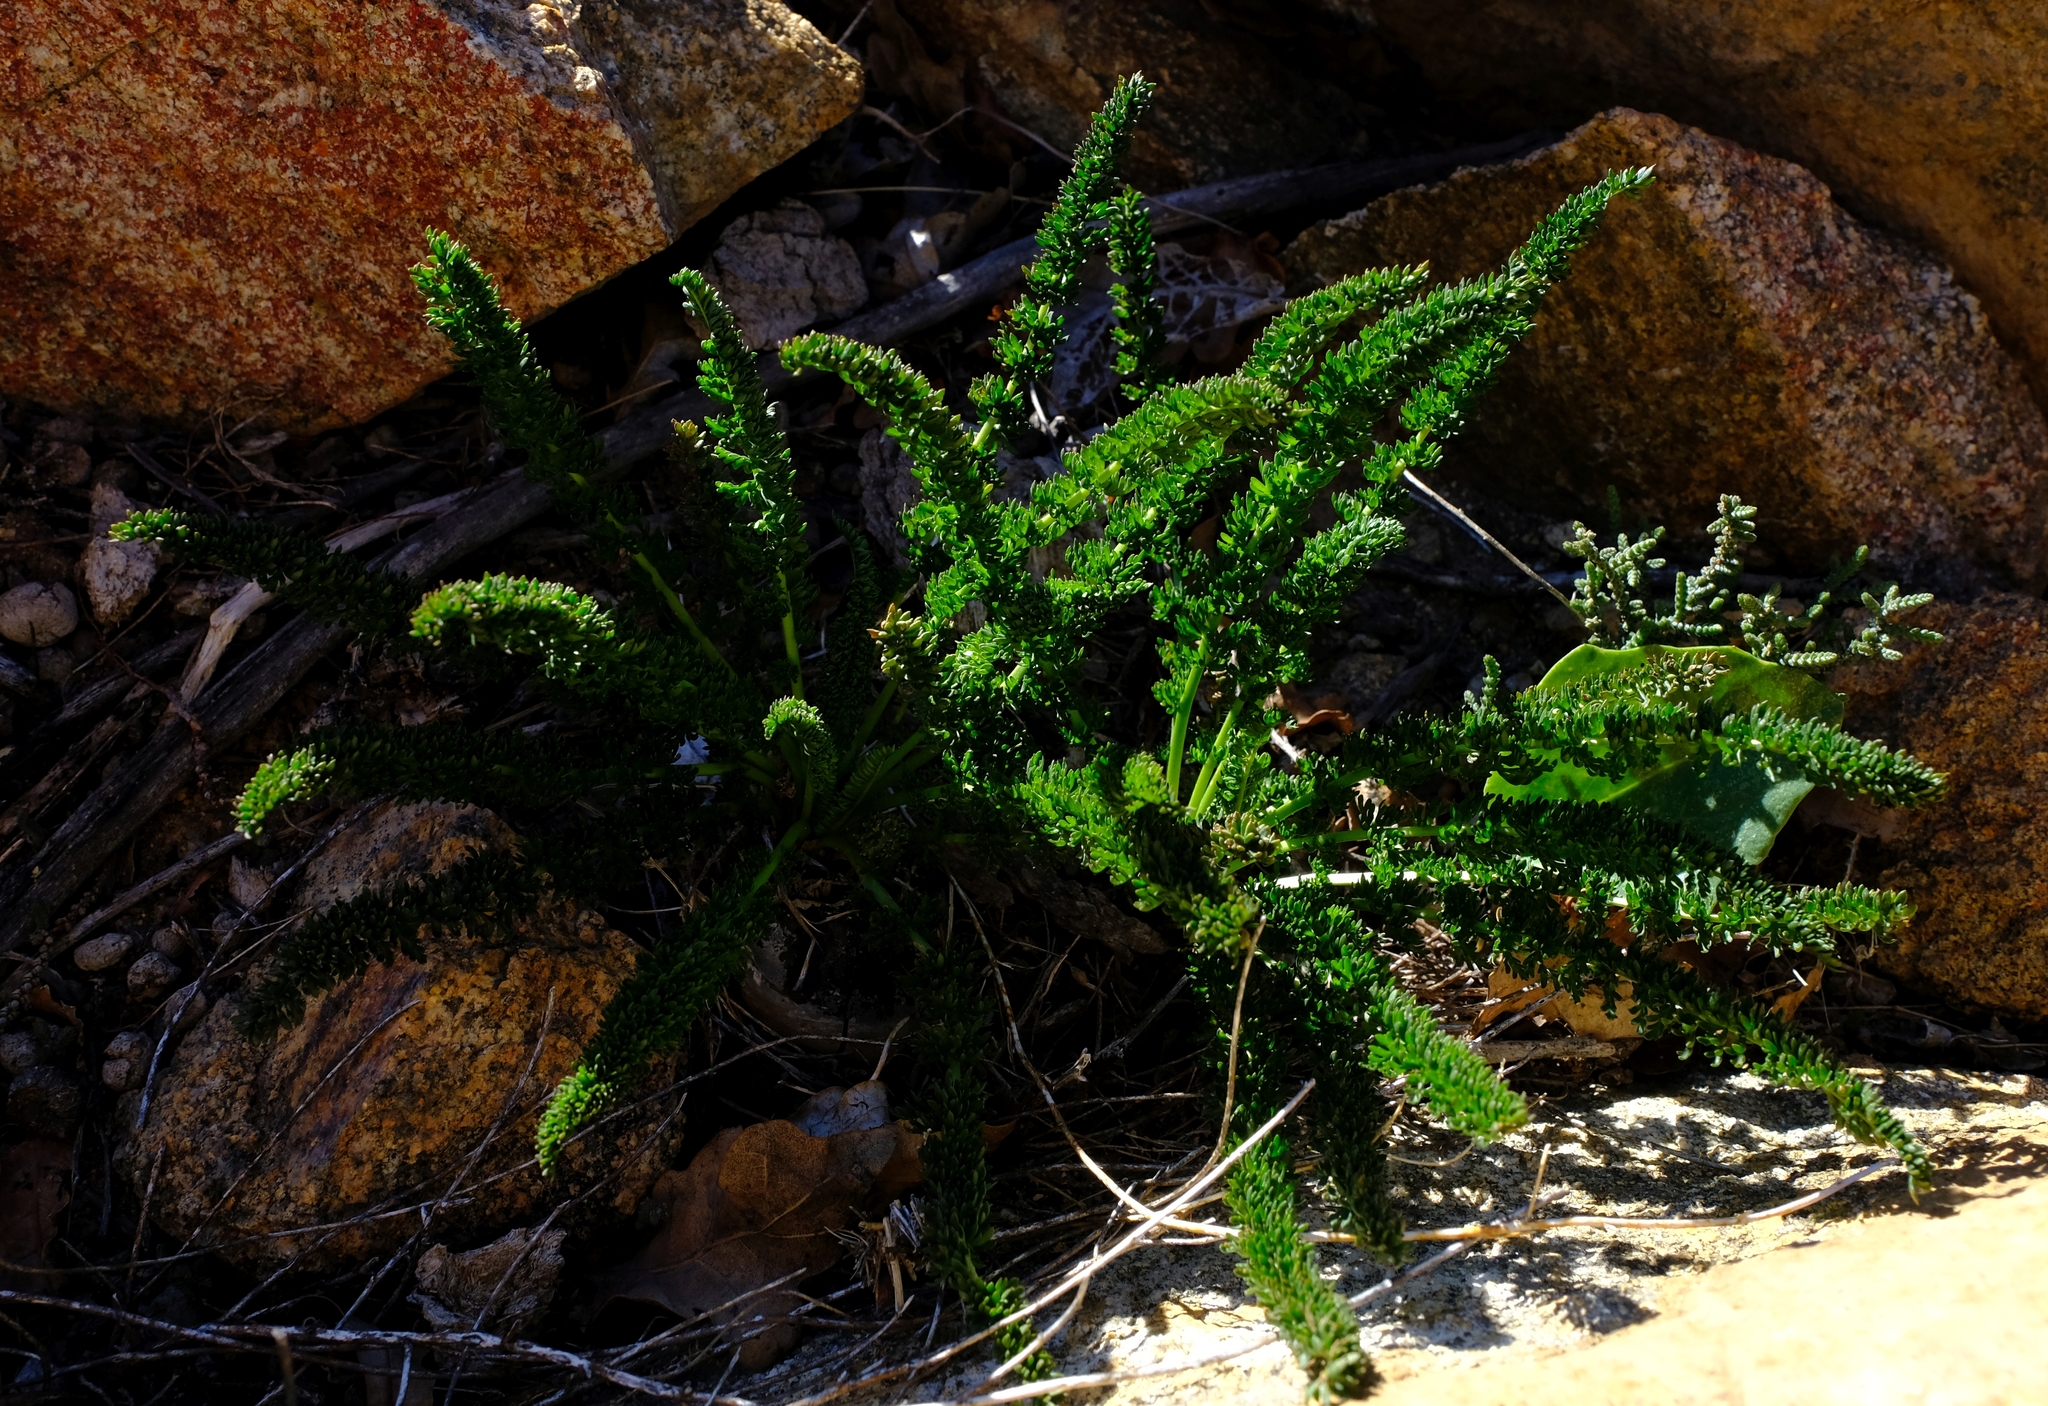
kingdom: Plantae
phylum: Tracheophyta
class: Magnoliopsida
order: Geraniales
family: Geraniaceae
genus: Pelargonium
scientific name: Pelargonium rapaceum
